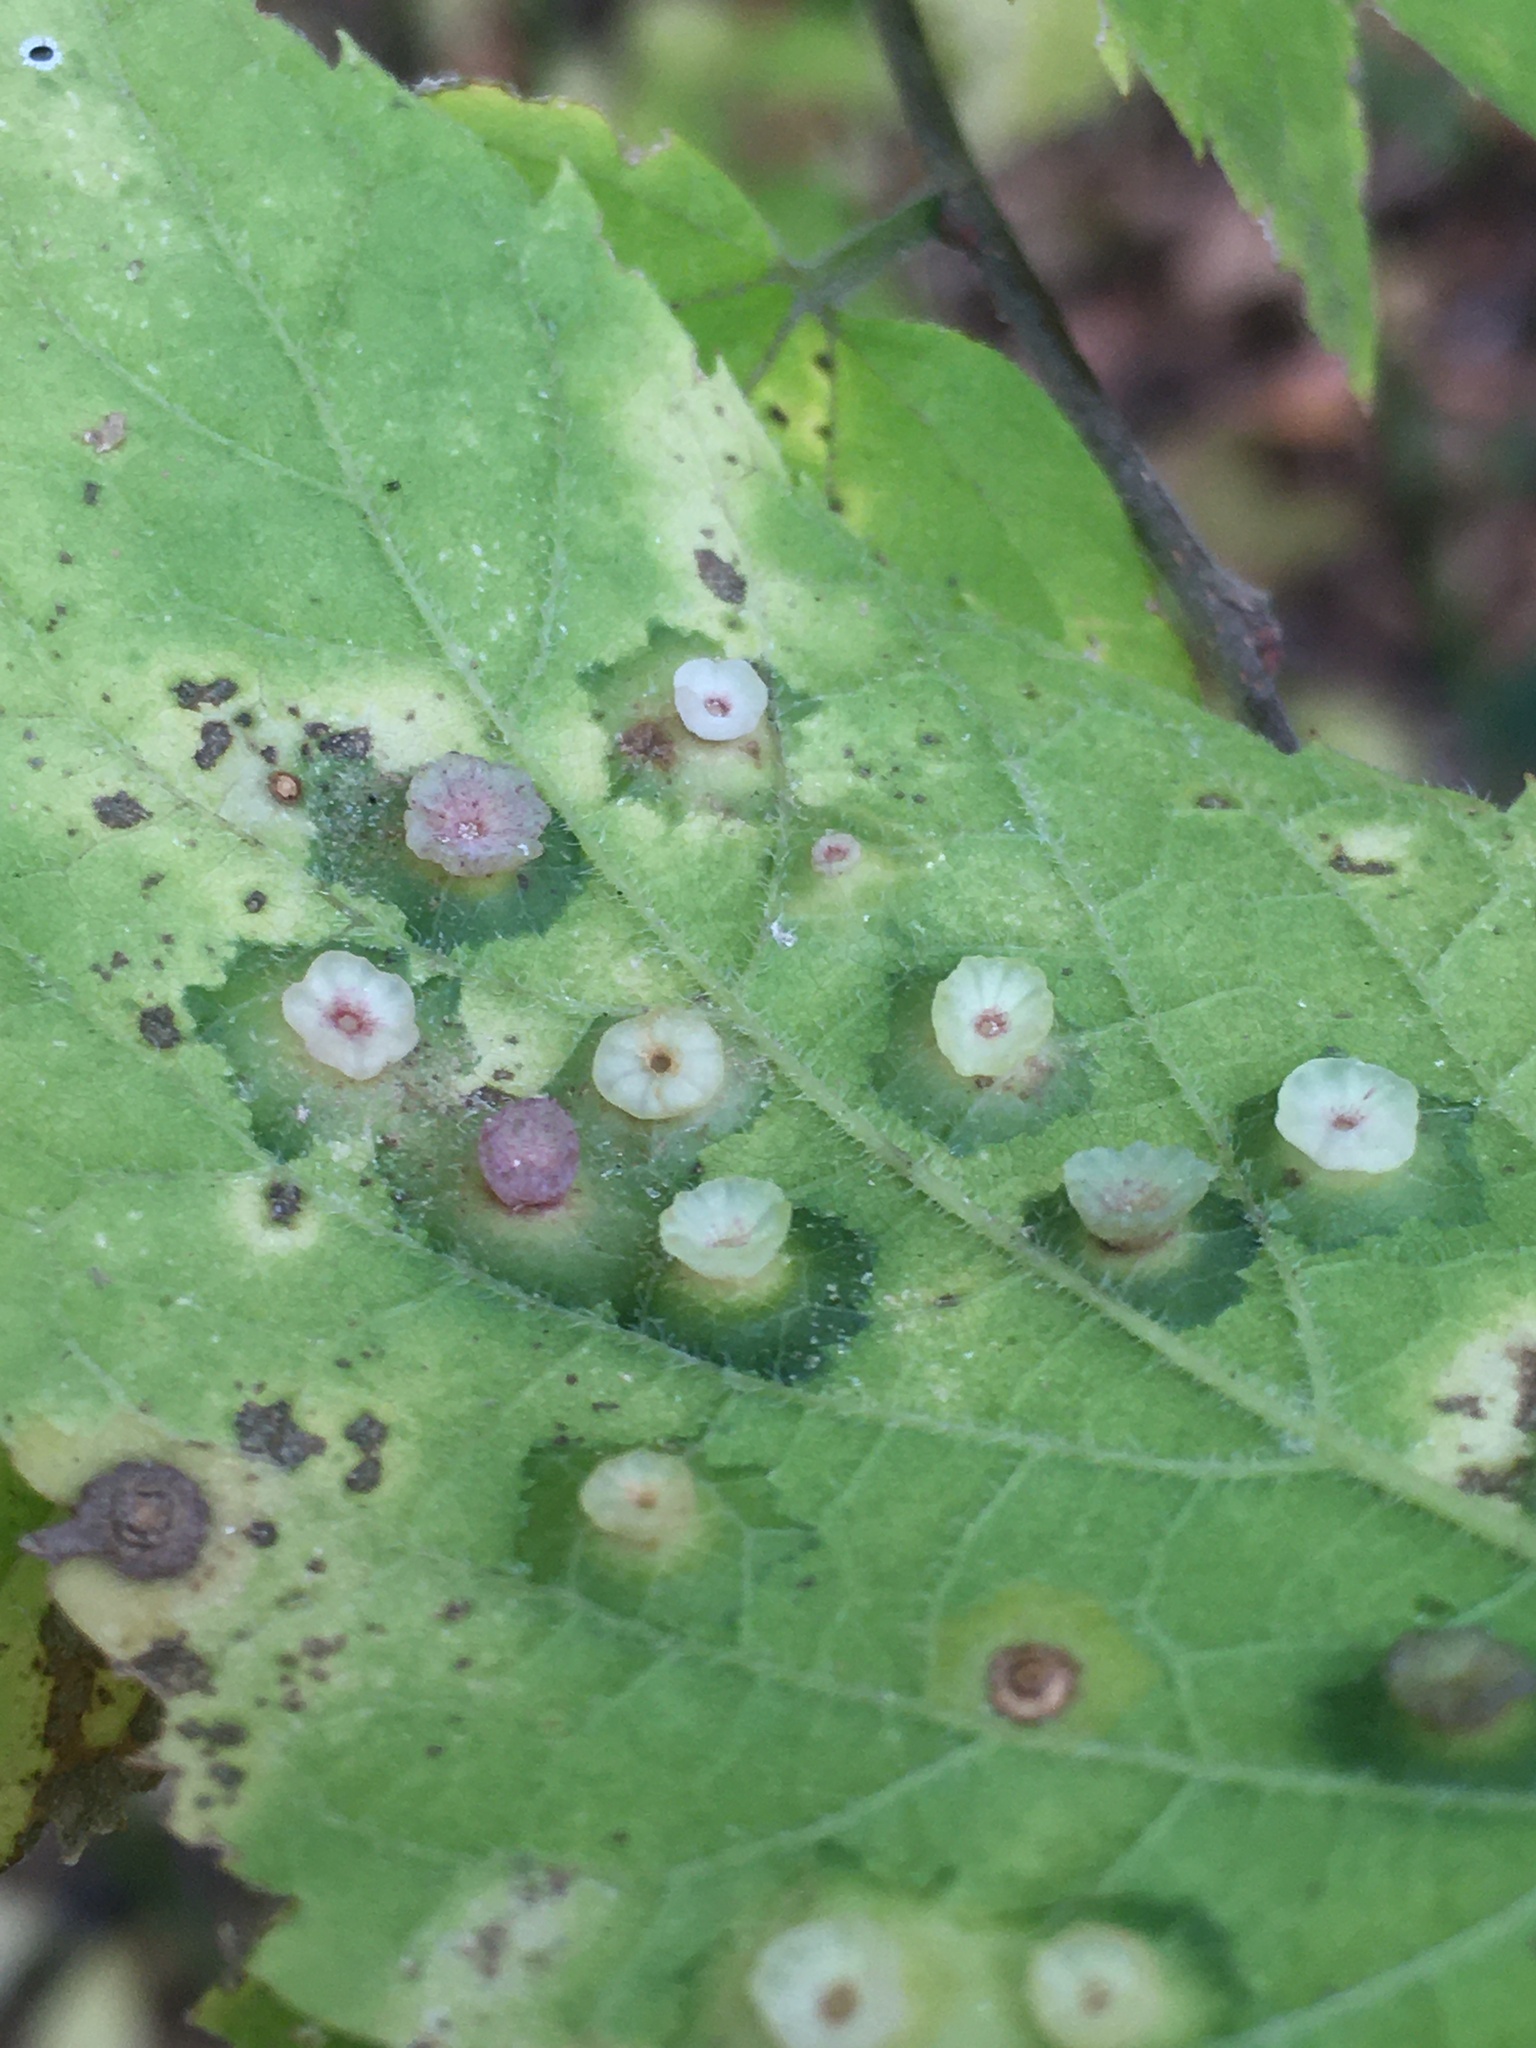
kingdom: Animalia
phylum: Arthropoda
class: Insecta
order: Hemiptera
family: Aphalaridae
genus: Pachypsylla
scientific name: Pachypsylla celtidisasterisca
